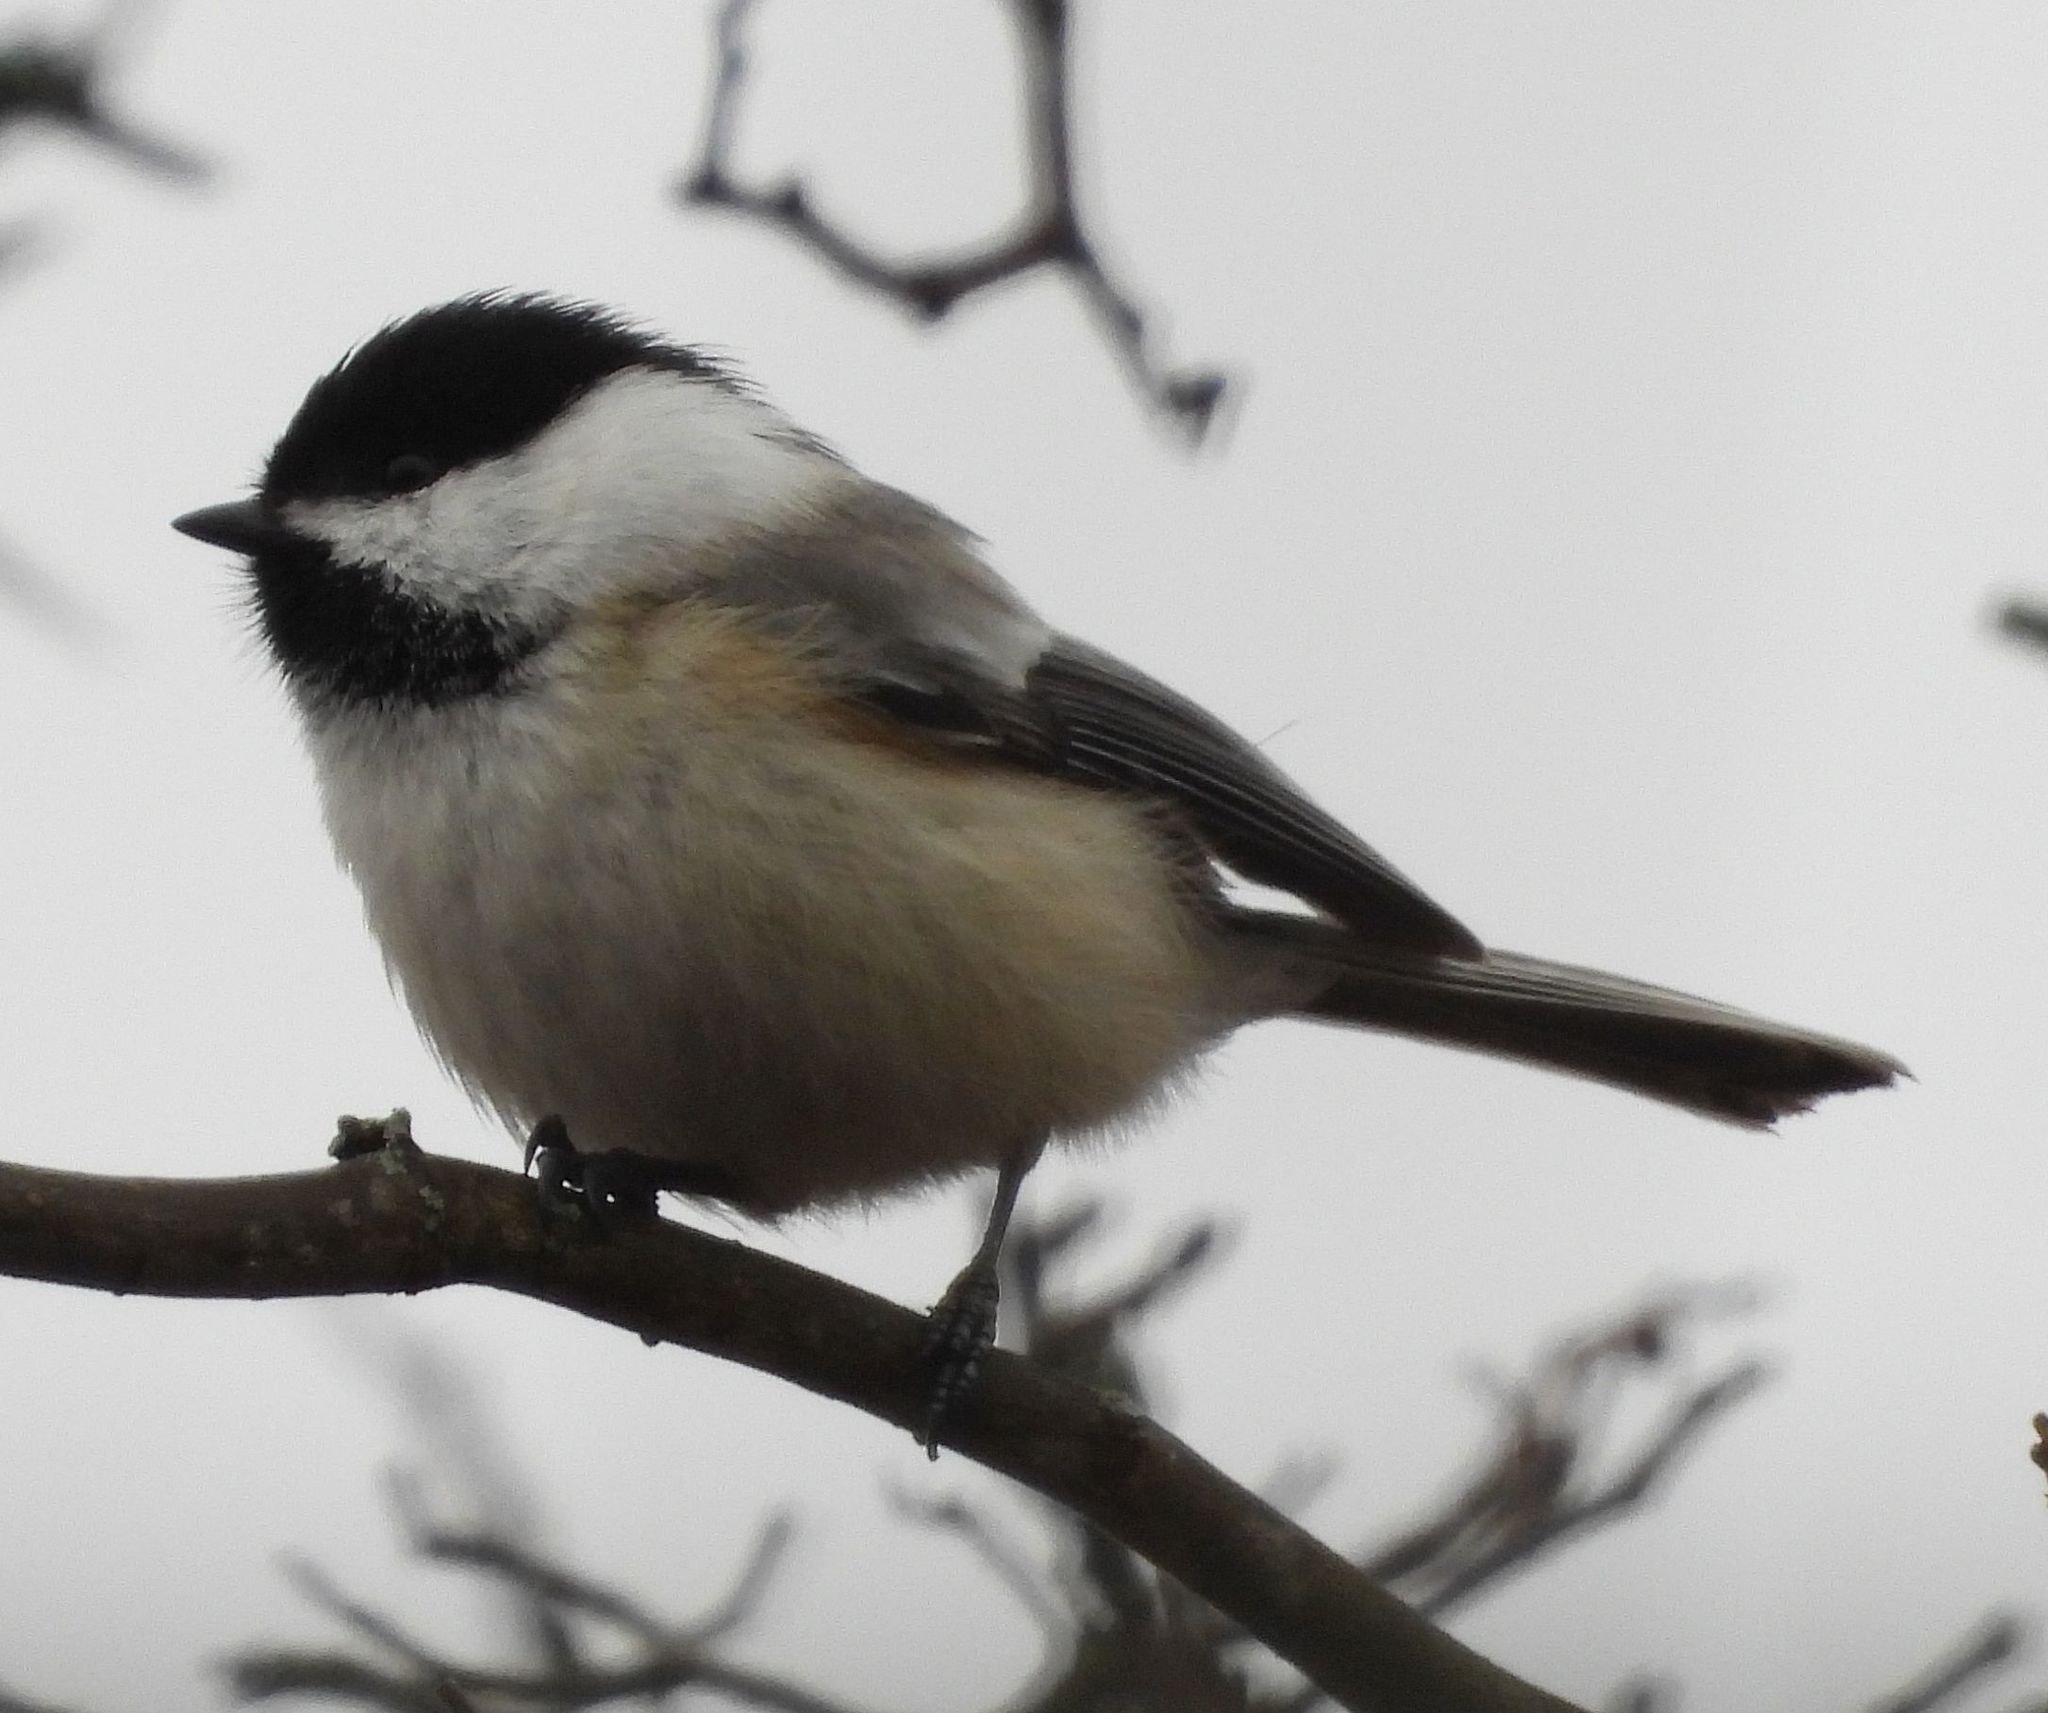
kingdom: Animalia
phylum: Chordata
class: Aves
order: Passeriformes
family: Paridae
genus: Poecile
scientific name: Poecile atricapillus
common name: Black-capped chickadee
